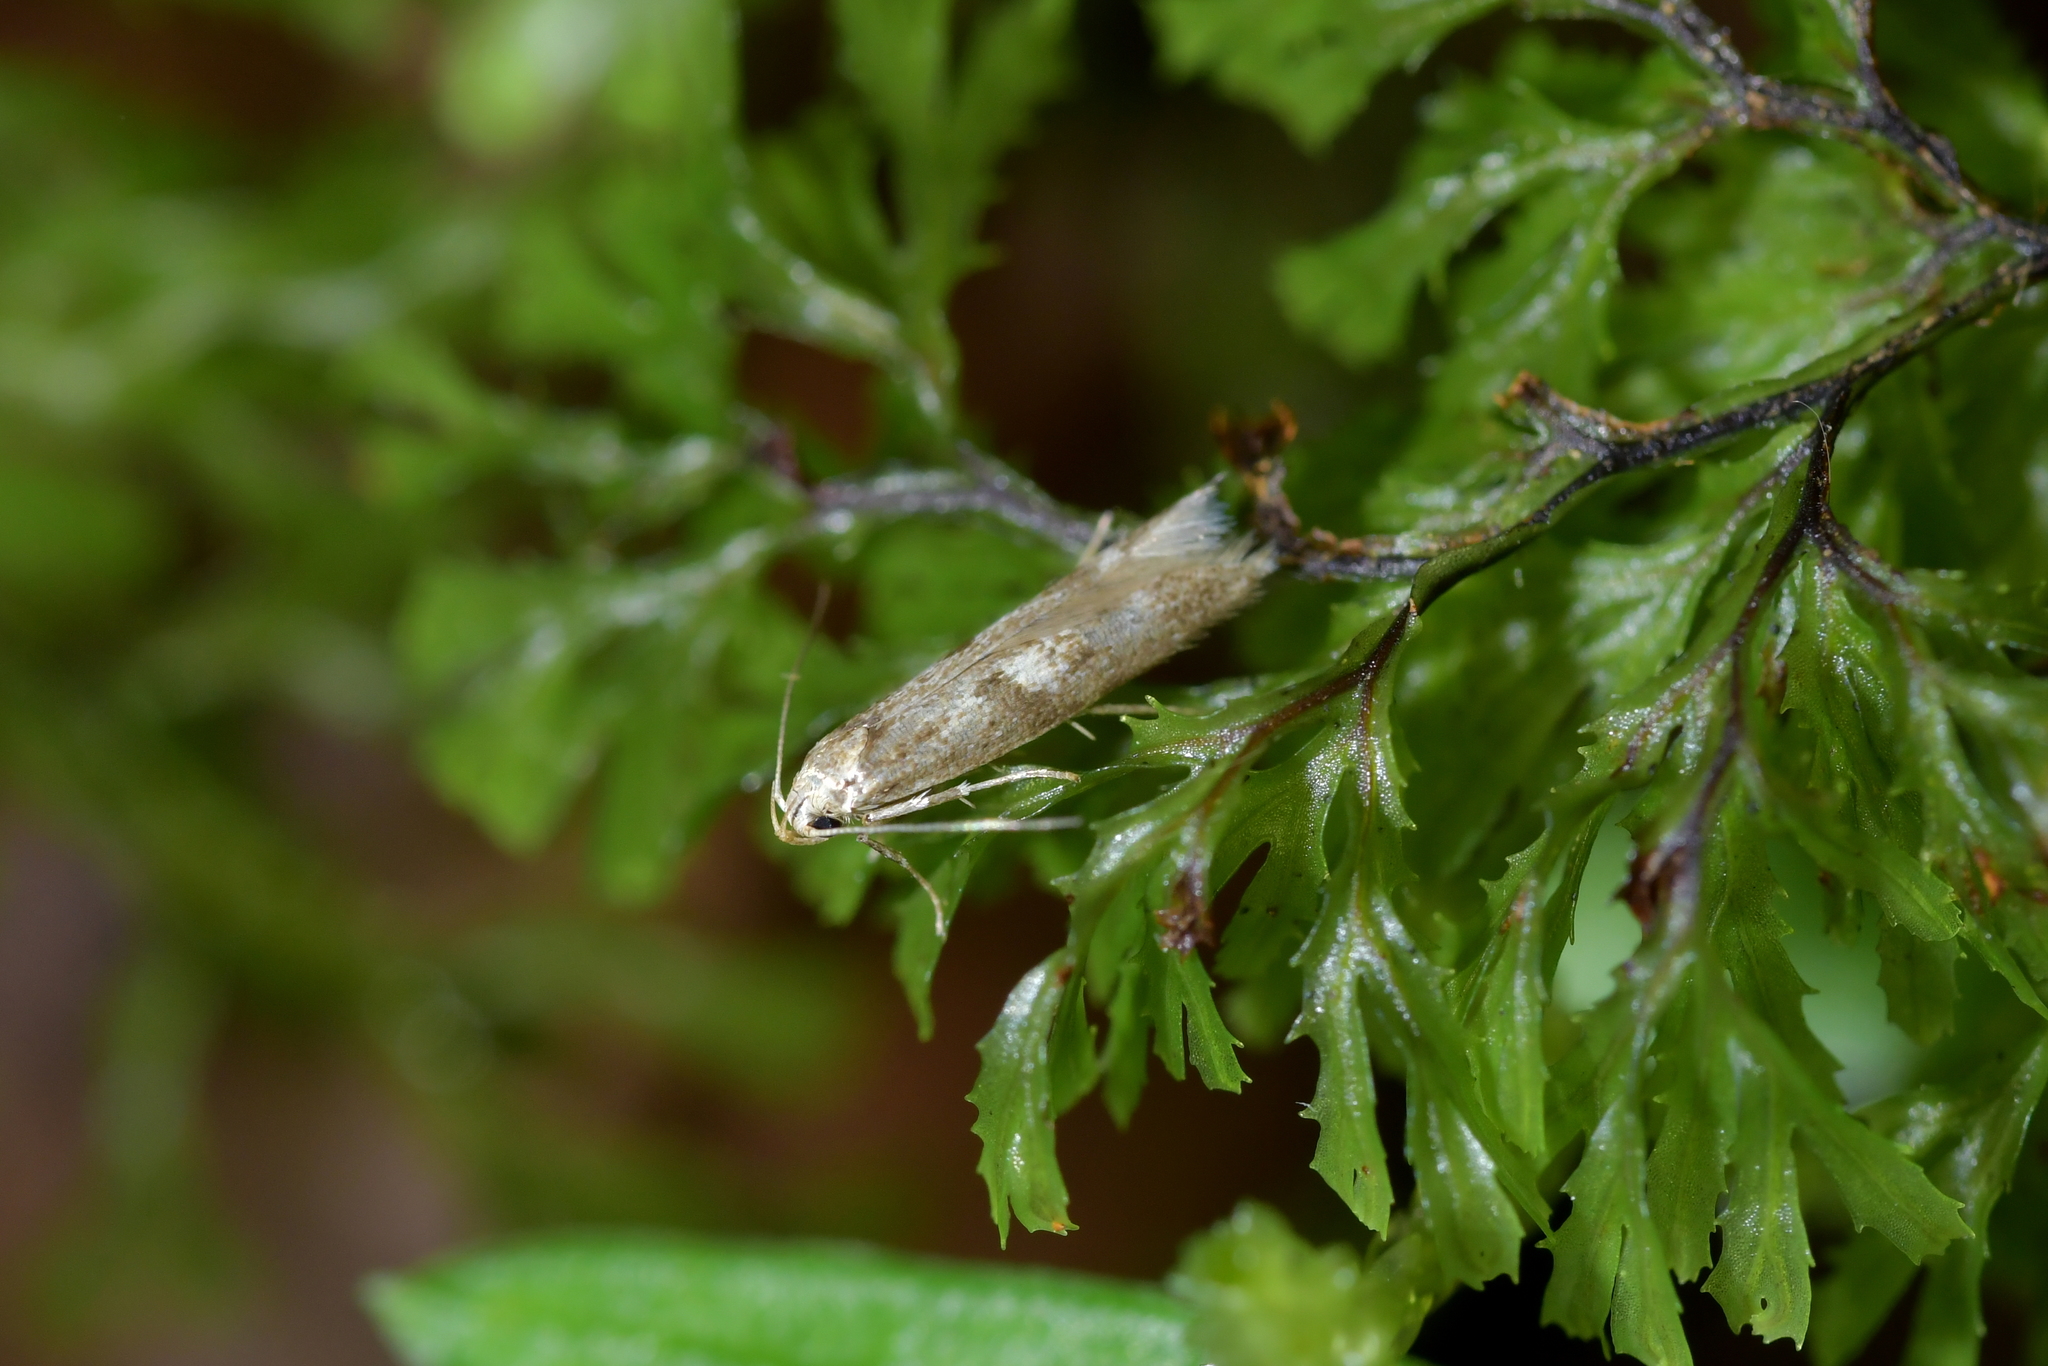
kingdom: Animalia
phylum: Arthropoda
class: Insecta
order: Lepidoptera
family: Gelechiidae
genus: Thiotricha
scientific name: Thiotricha tetraphala
